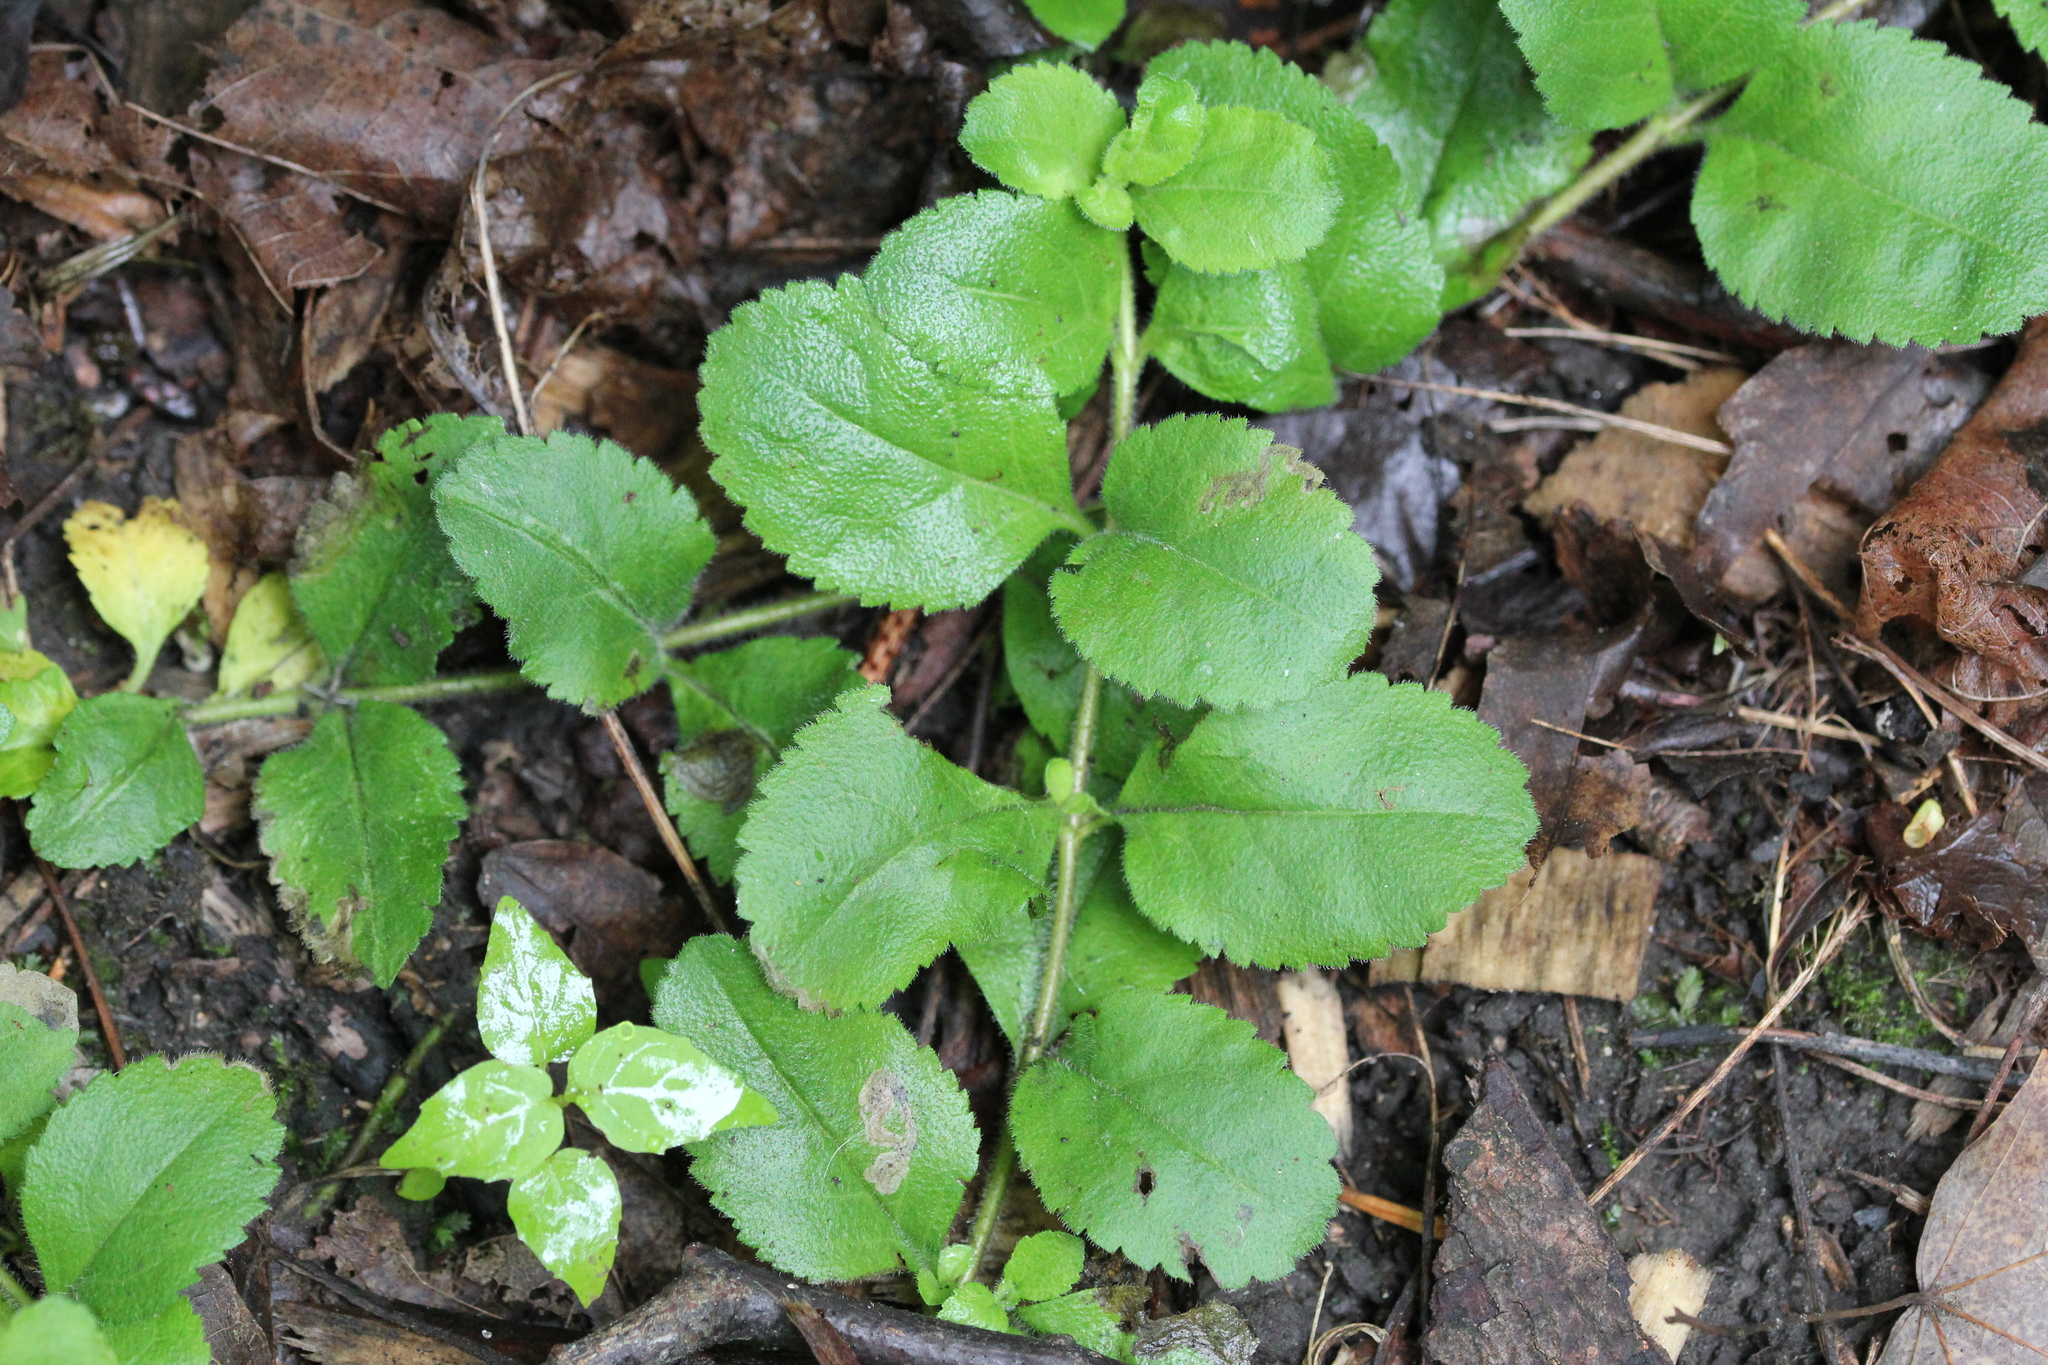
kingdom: Plantae
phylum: Tracheophyta
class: Magnoliopsida
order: Lamiales
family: Plantaginaceae
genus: Veronica
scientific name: Veronica officinalis
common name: Common speedwell
